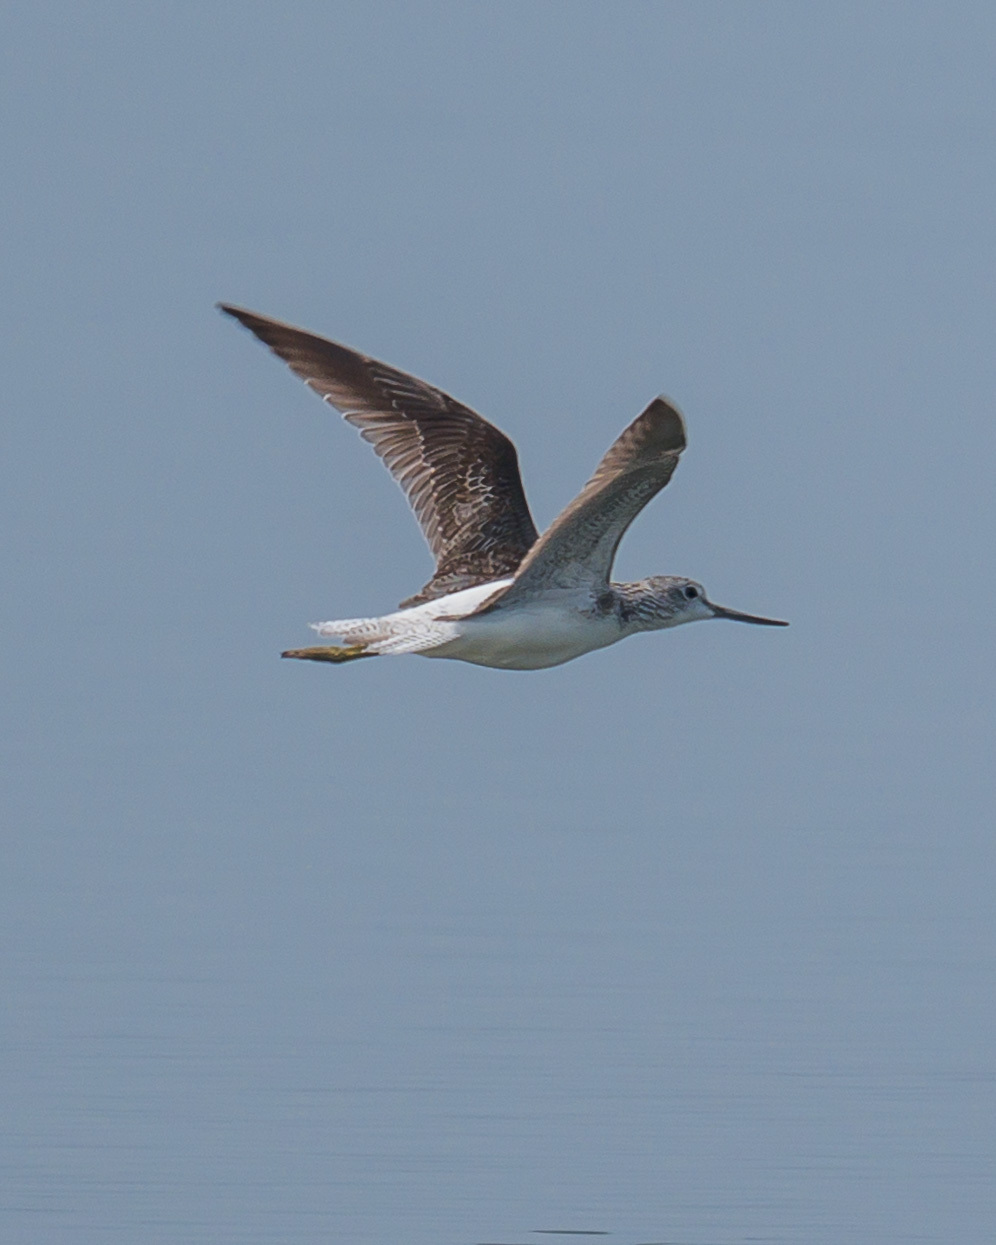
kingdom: Animalia
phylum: Chordata
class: Aves
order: Charadriiformes
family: Scolopacidae
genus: Tringa
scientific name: Tringa nebularia
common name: Common greenshank
